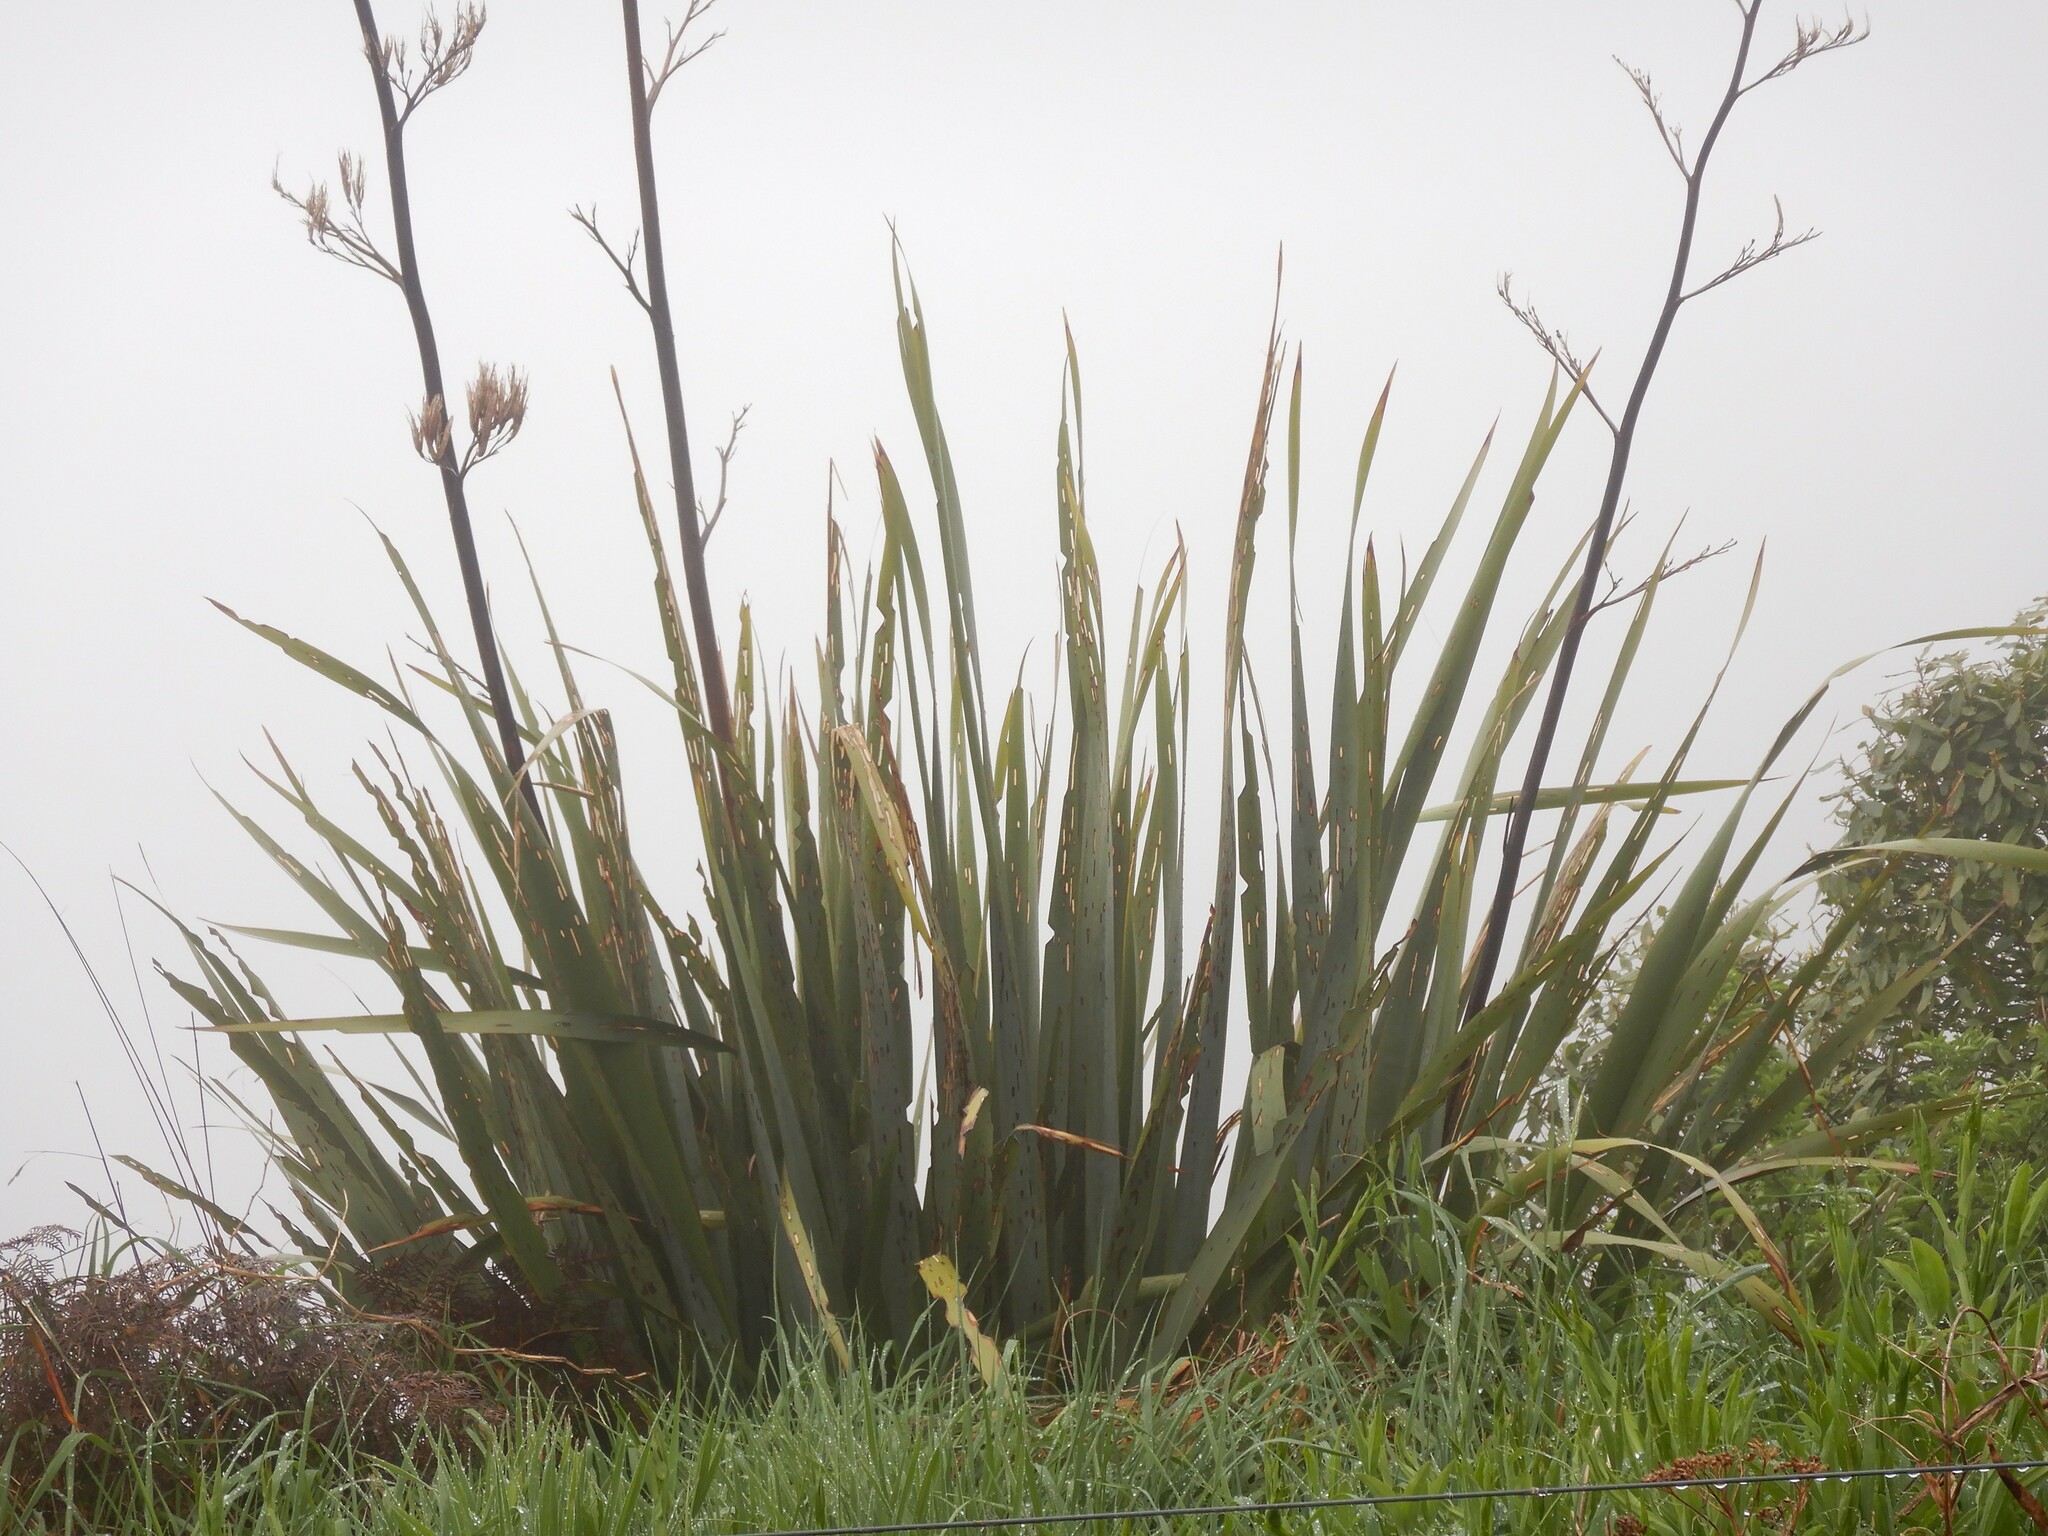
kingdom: Plantae
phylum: Tracheophyta
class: Liliopsida
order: Asparagales
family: Asphodelaceae
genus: Phormium
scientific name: Phormium tenax
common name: New zealand flax
